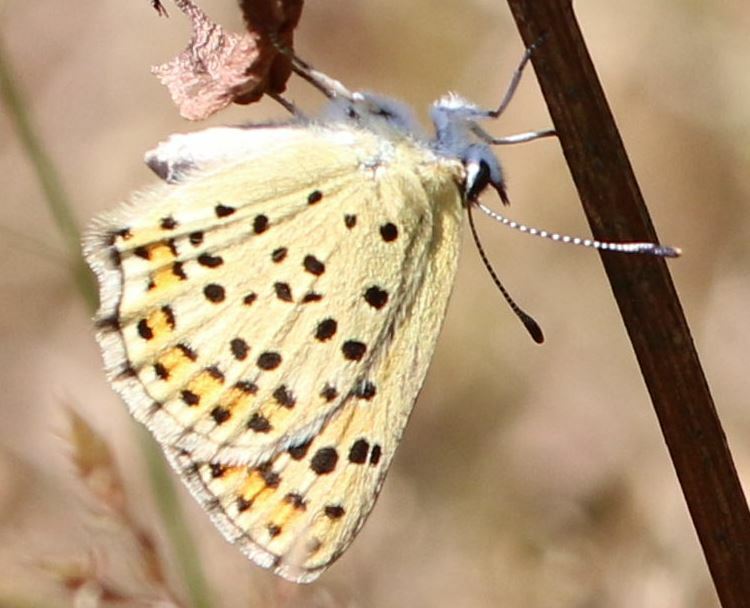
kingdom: Animalia
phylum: Arthropoda
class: Insecta
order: Lepidoptera
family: Lycaenidae
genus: Loweia
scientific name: Loweia tityrus
